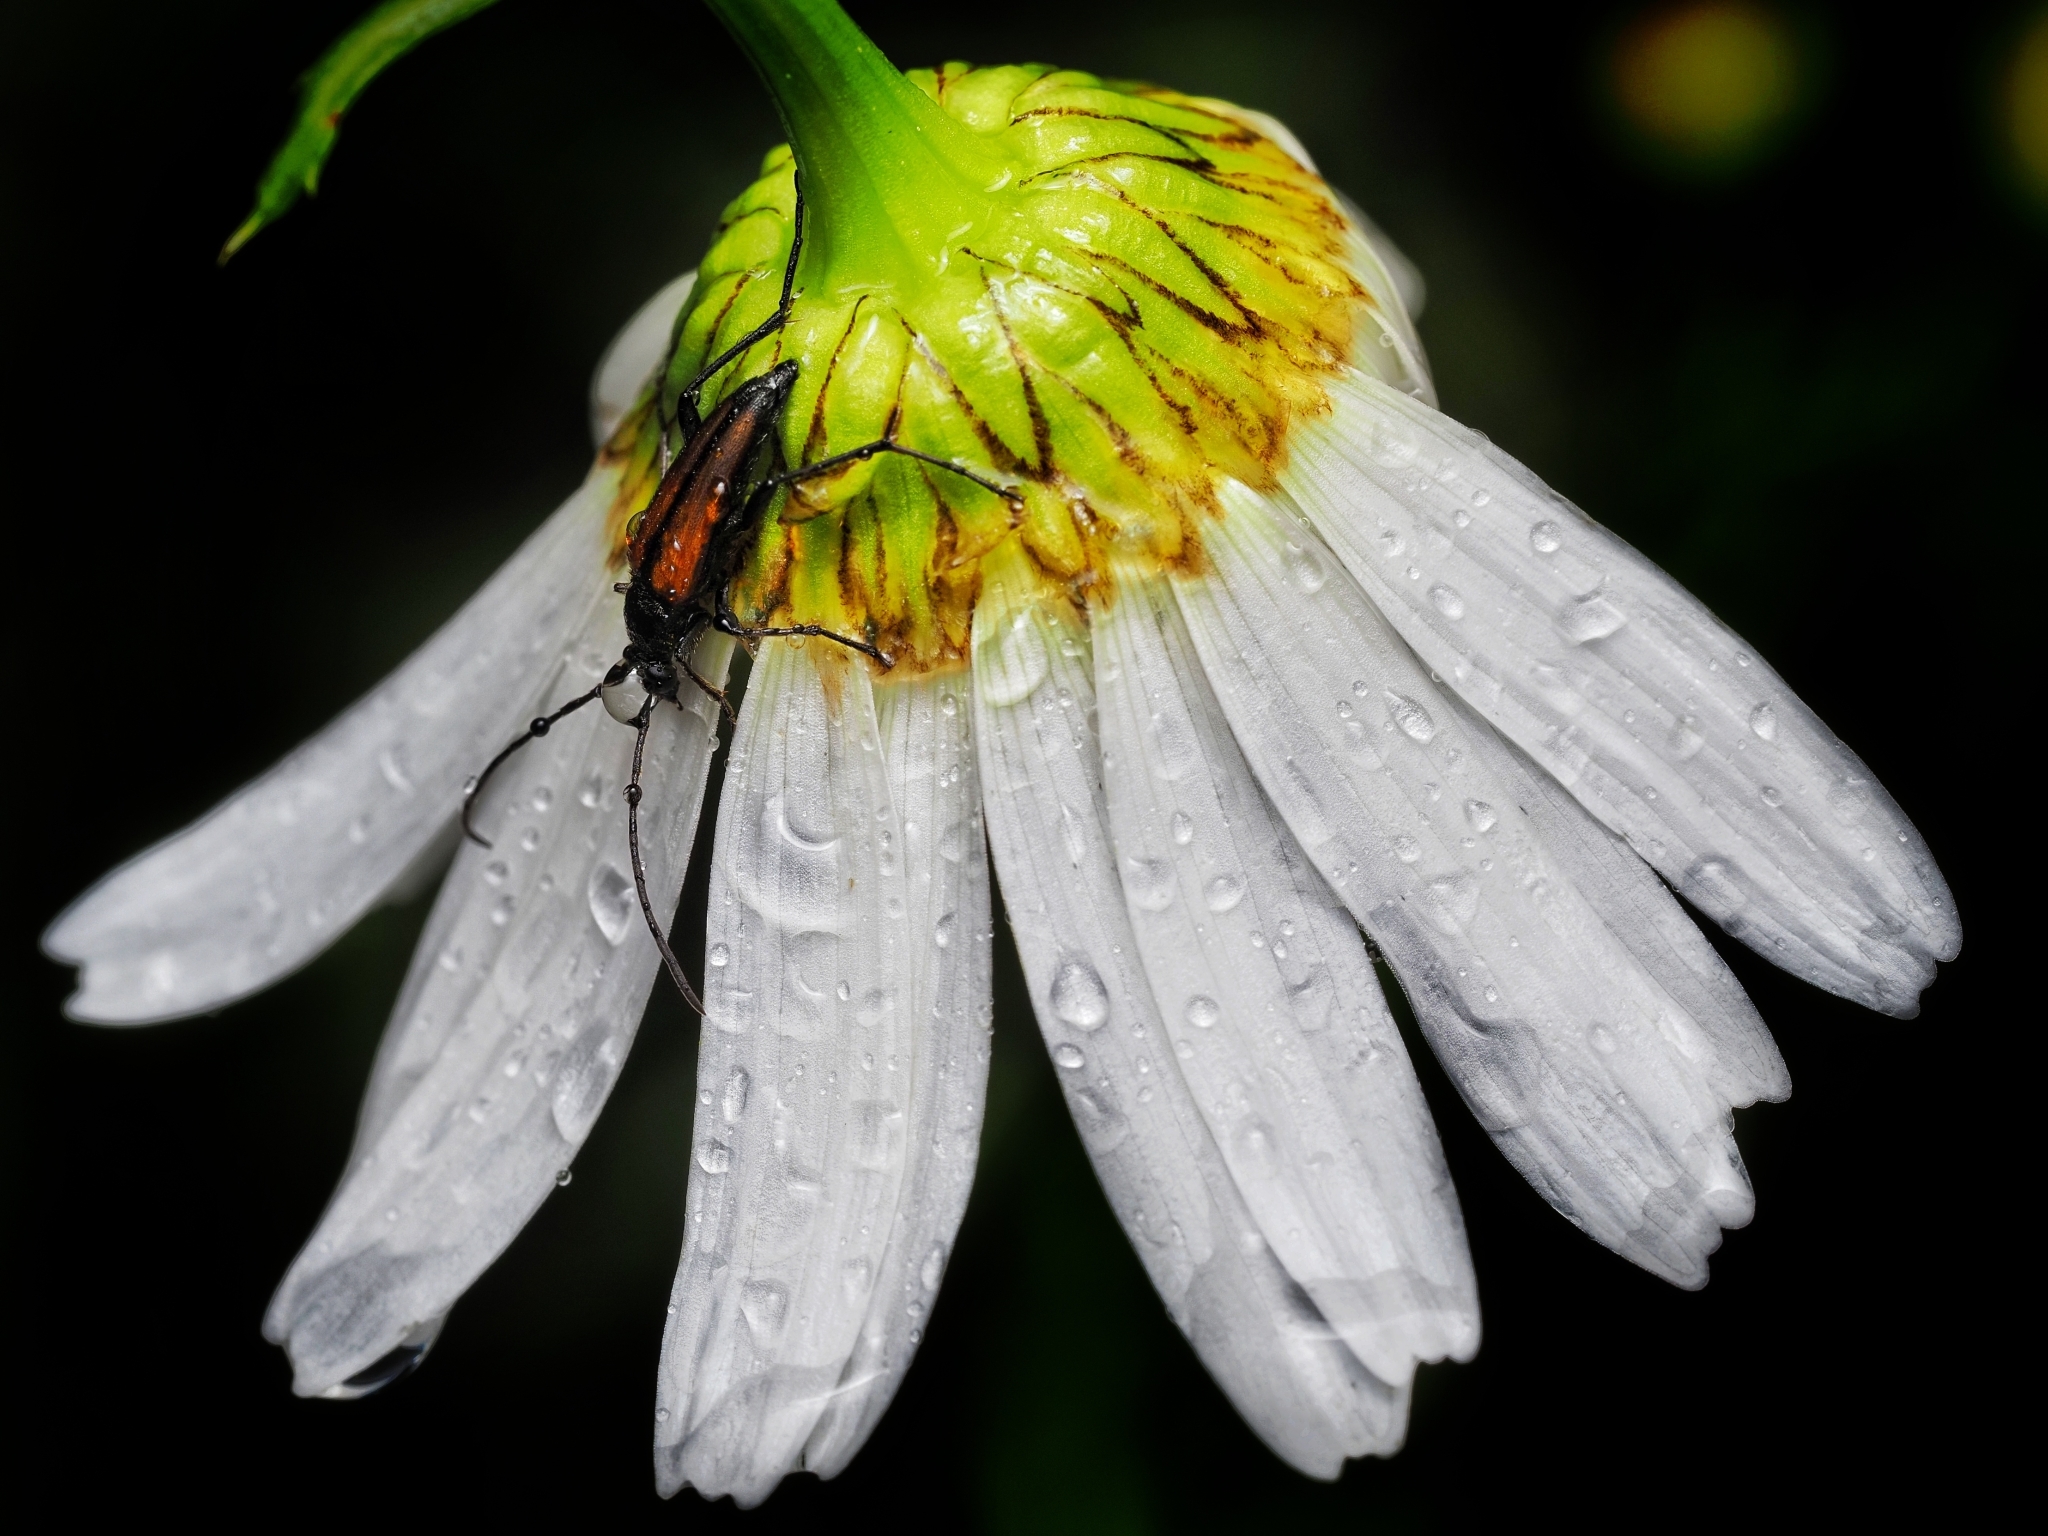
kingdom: Animalia
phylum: Arthropoda
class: Insecta
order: Coleoptera
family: Cerambycidae
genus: Stenurella
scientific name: Stenurella melanura
